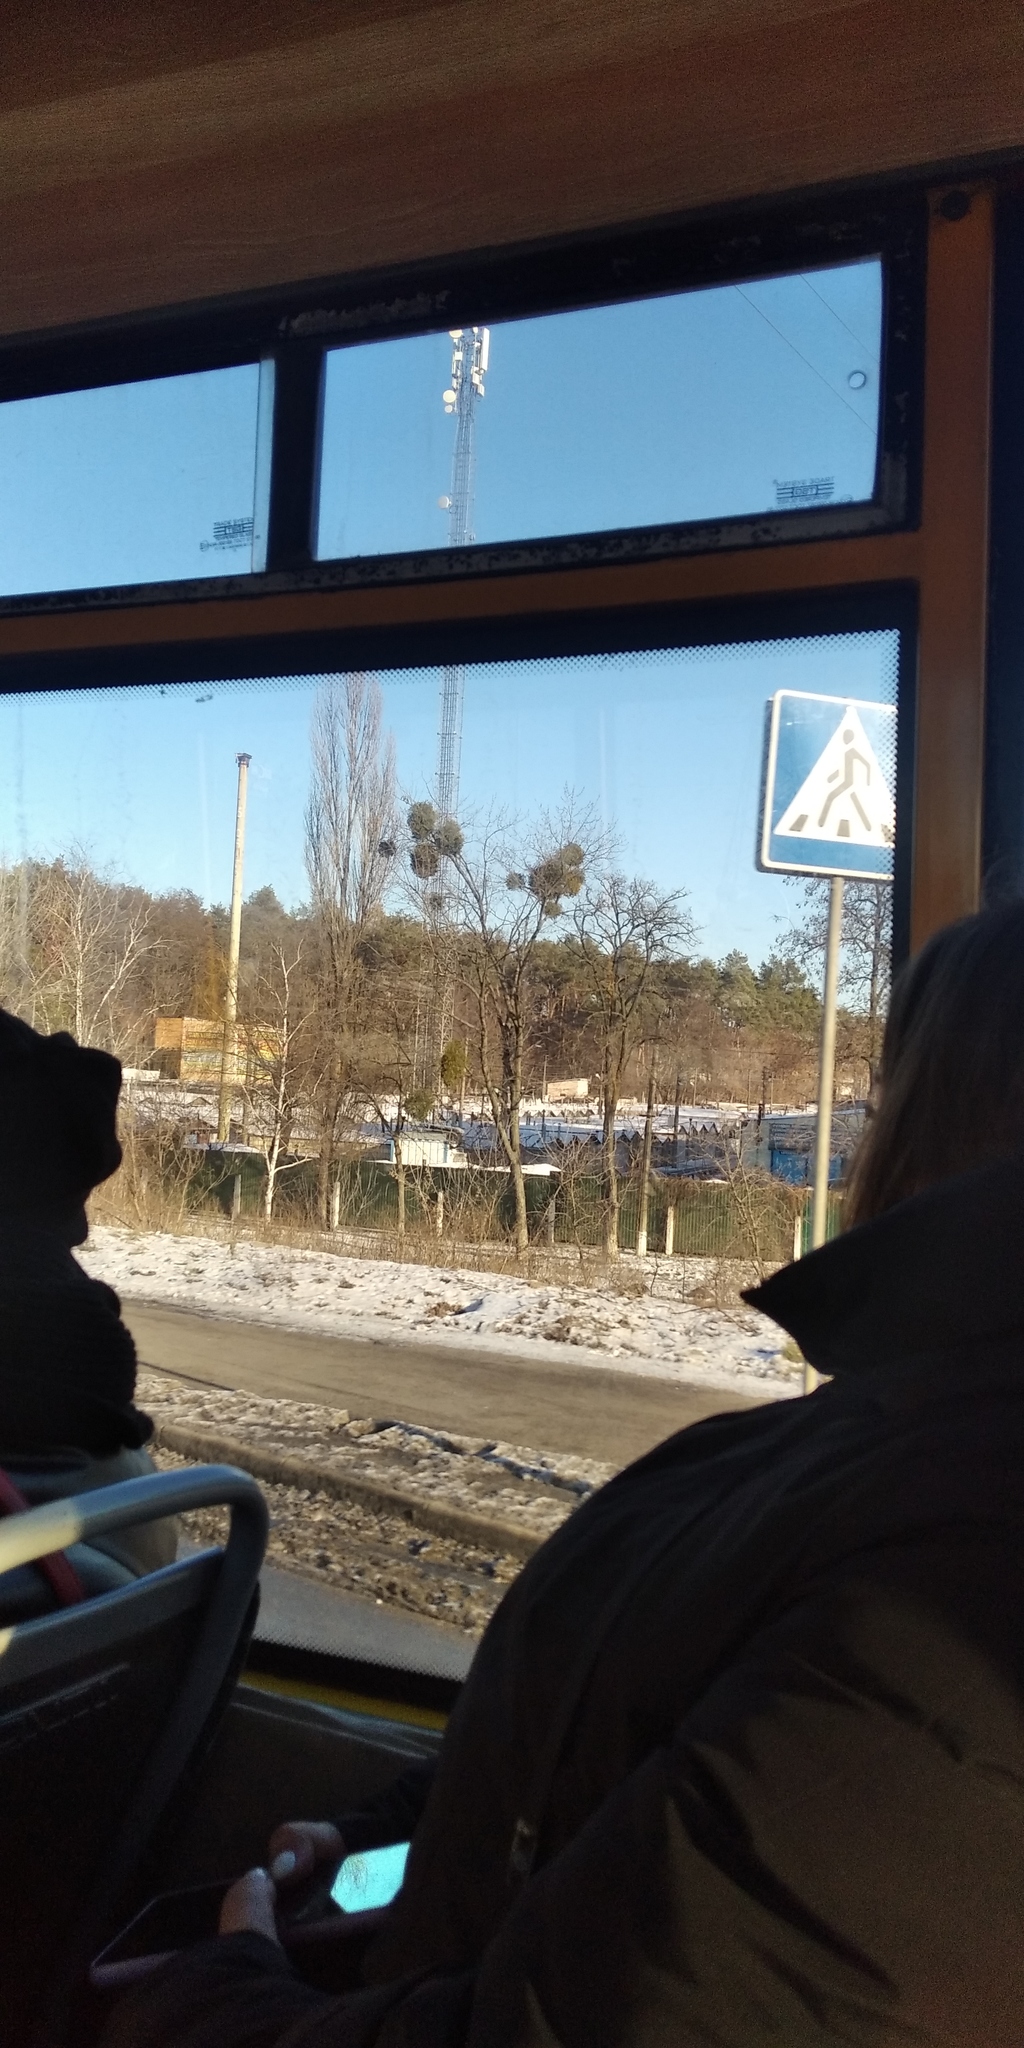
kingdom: Plantae
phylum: Tracheophyta
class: Magnoliopsida
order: Santalales
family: Viscaceae
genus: Viscum
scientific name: Viscum album
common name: Mistletoe
